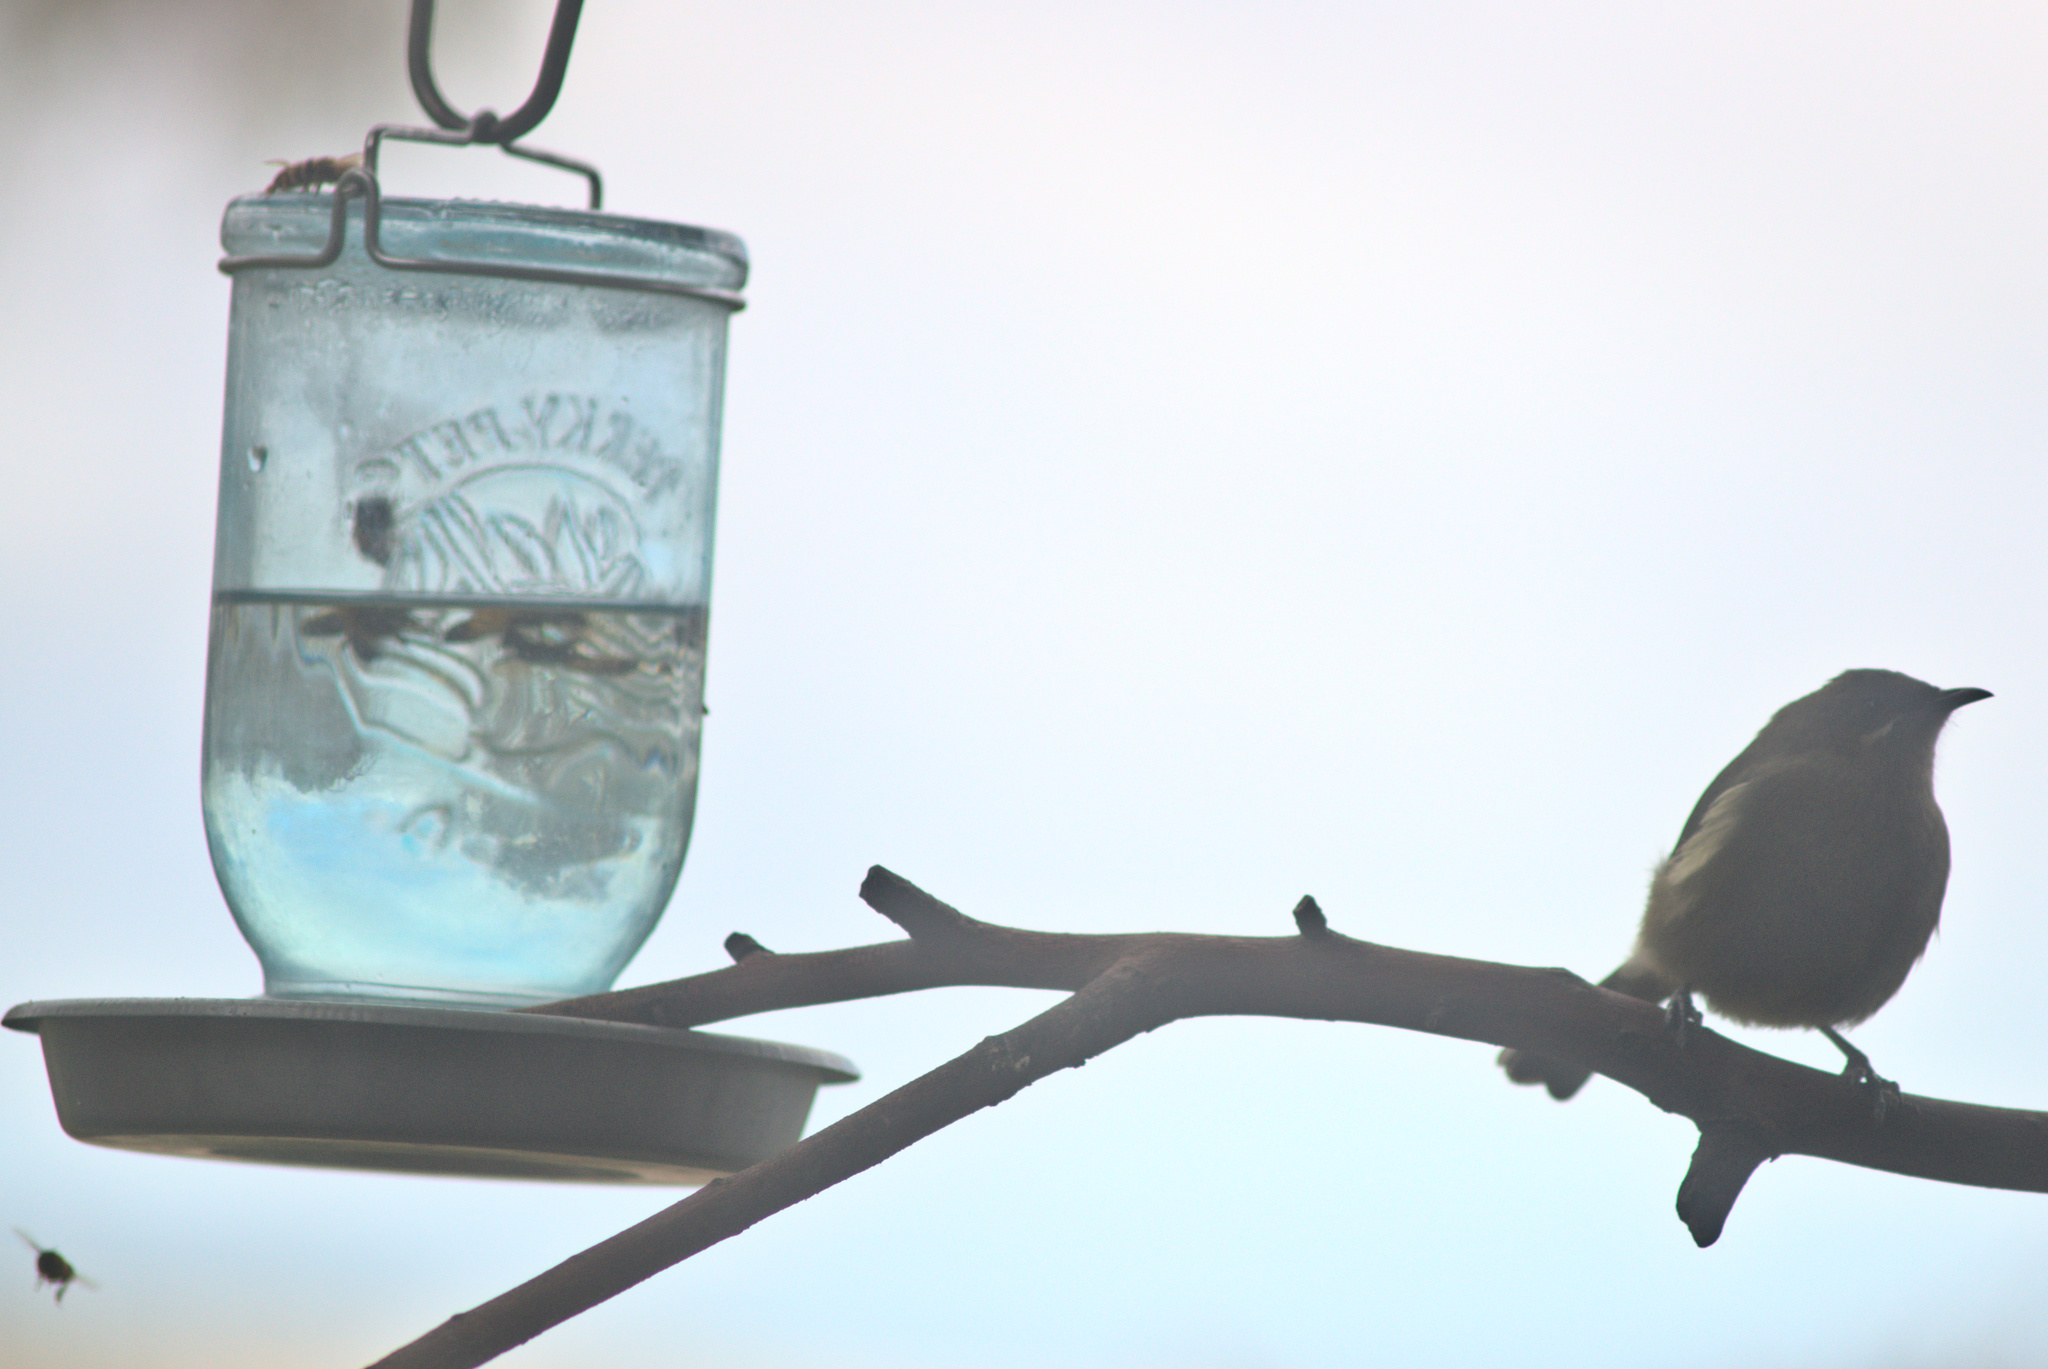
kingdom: Animalia
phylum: Chordata
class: Aves
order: Passeriformes
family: Meliphagidae
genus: Anthornis
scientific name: Anthornis melanura
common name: New zealand bellbird
